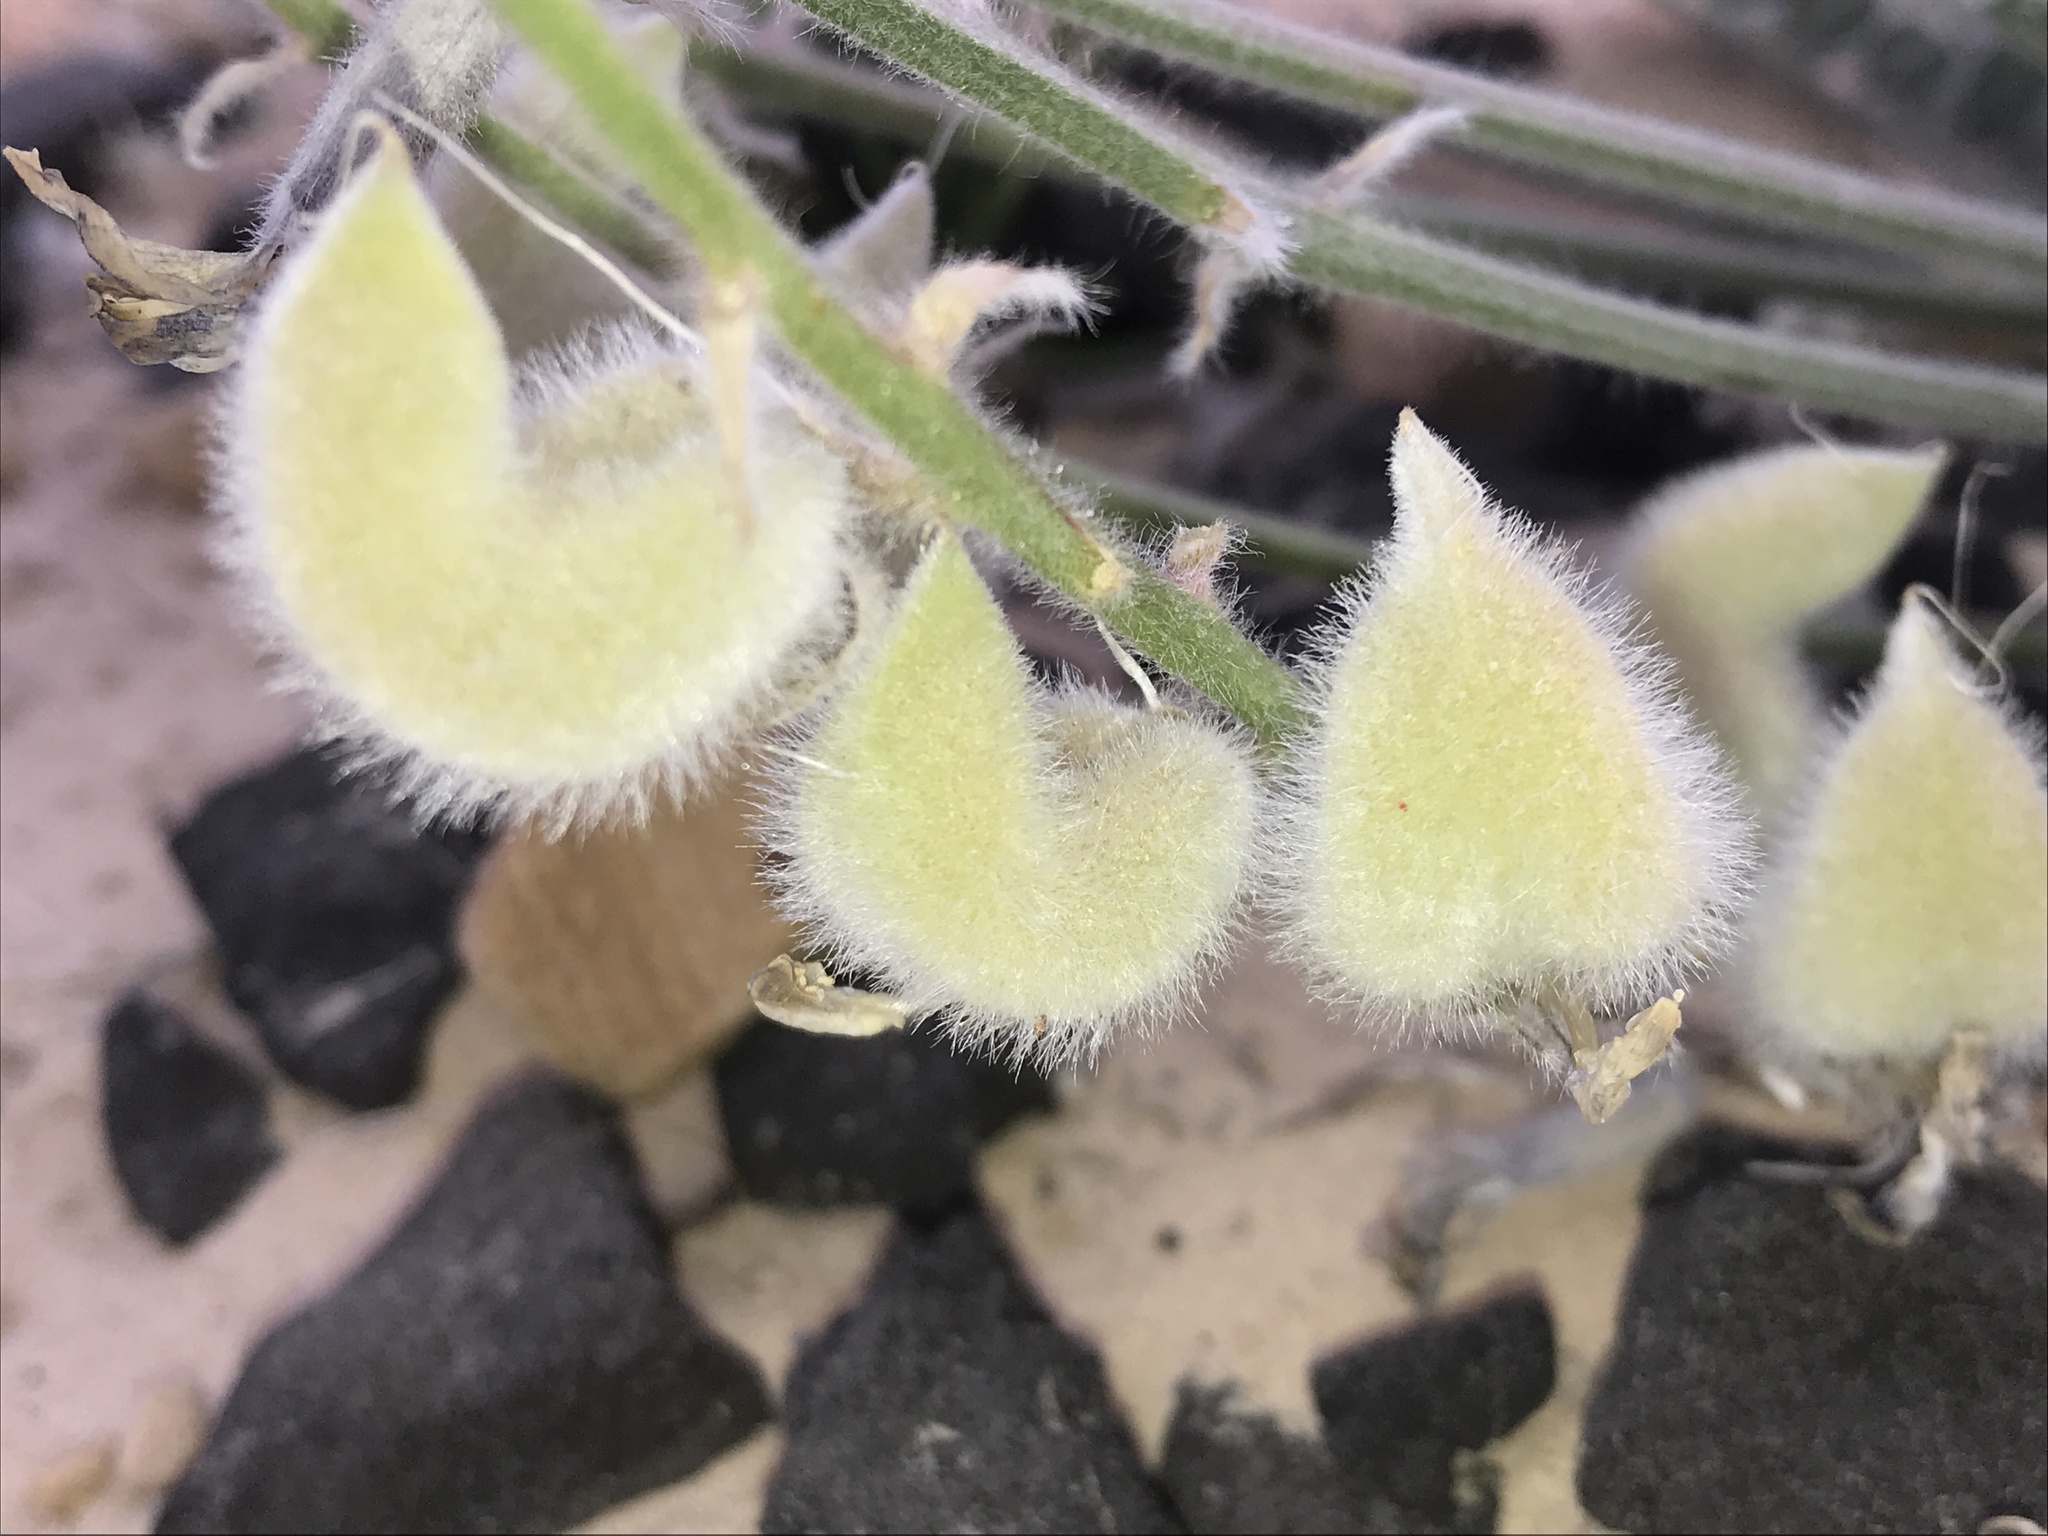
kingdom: Plantae
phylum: Tracheophyta
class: Magnoliopsida
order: Fabales
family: Fabaceae
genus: Astragalus
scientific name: Astragalus mollissimus
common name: Woolly locoweed
